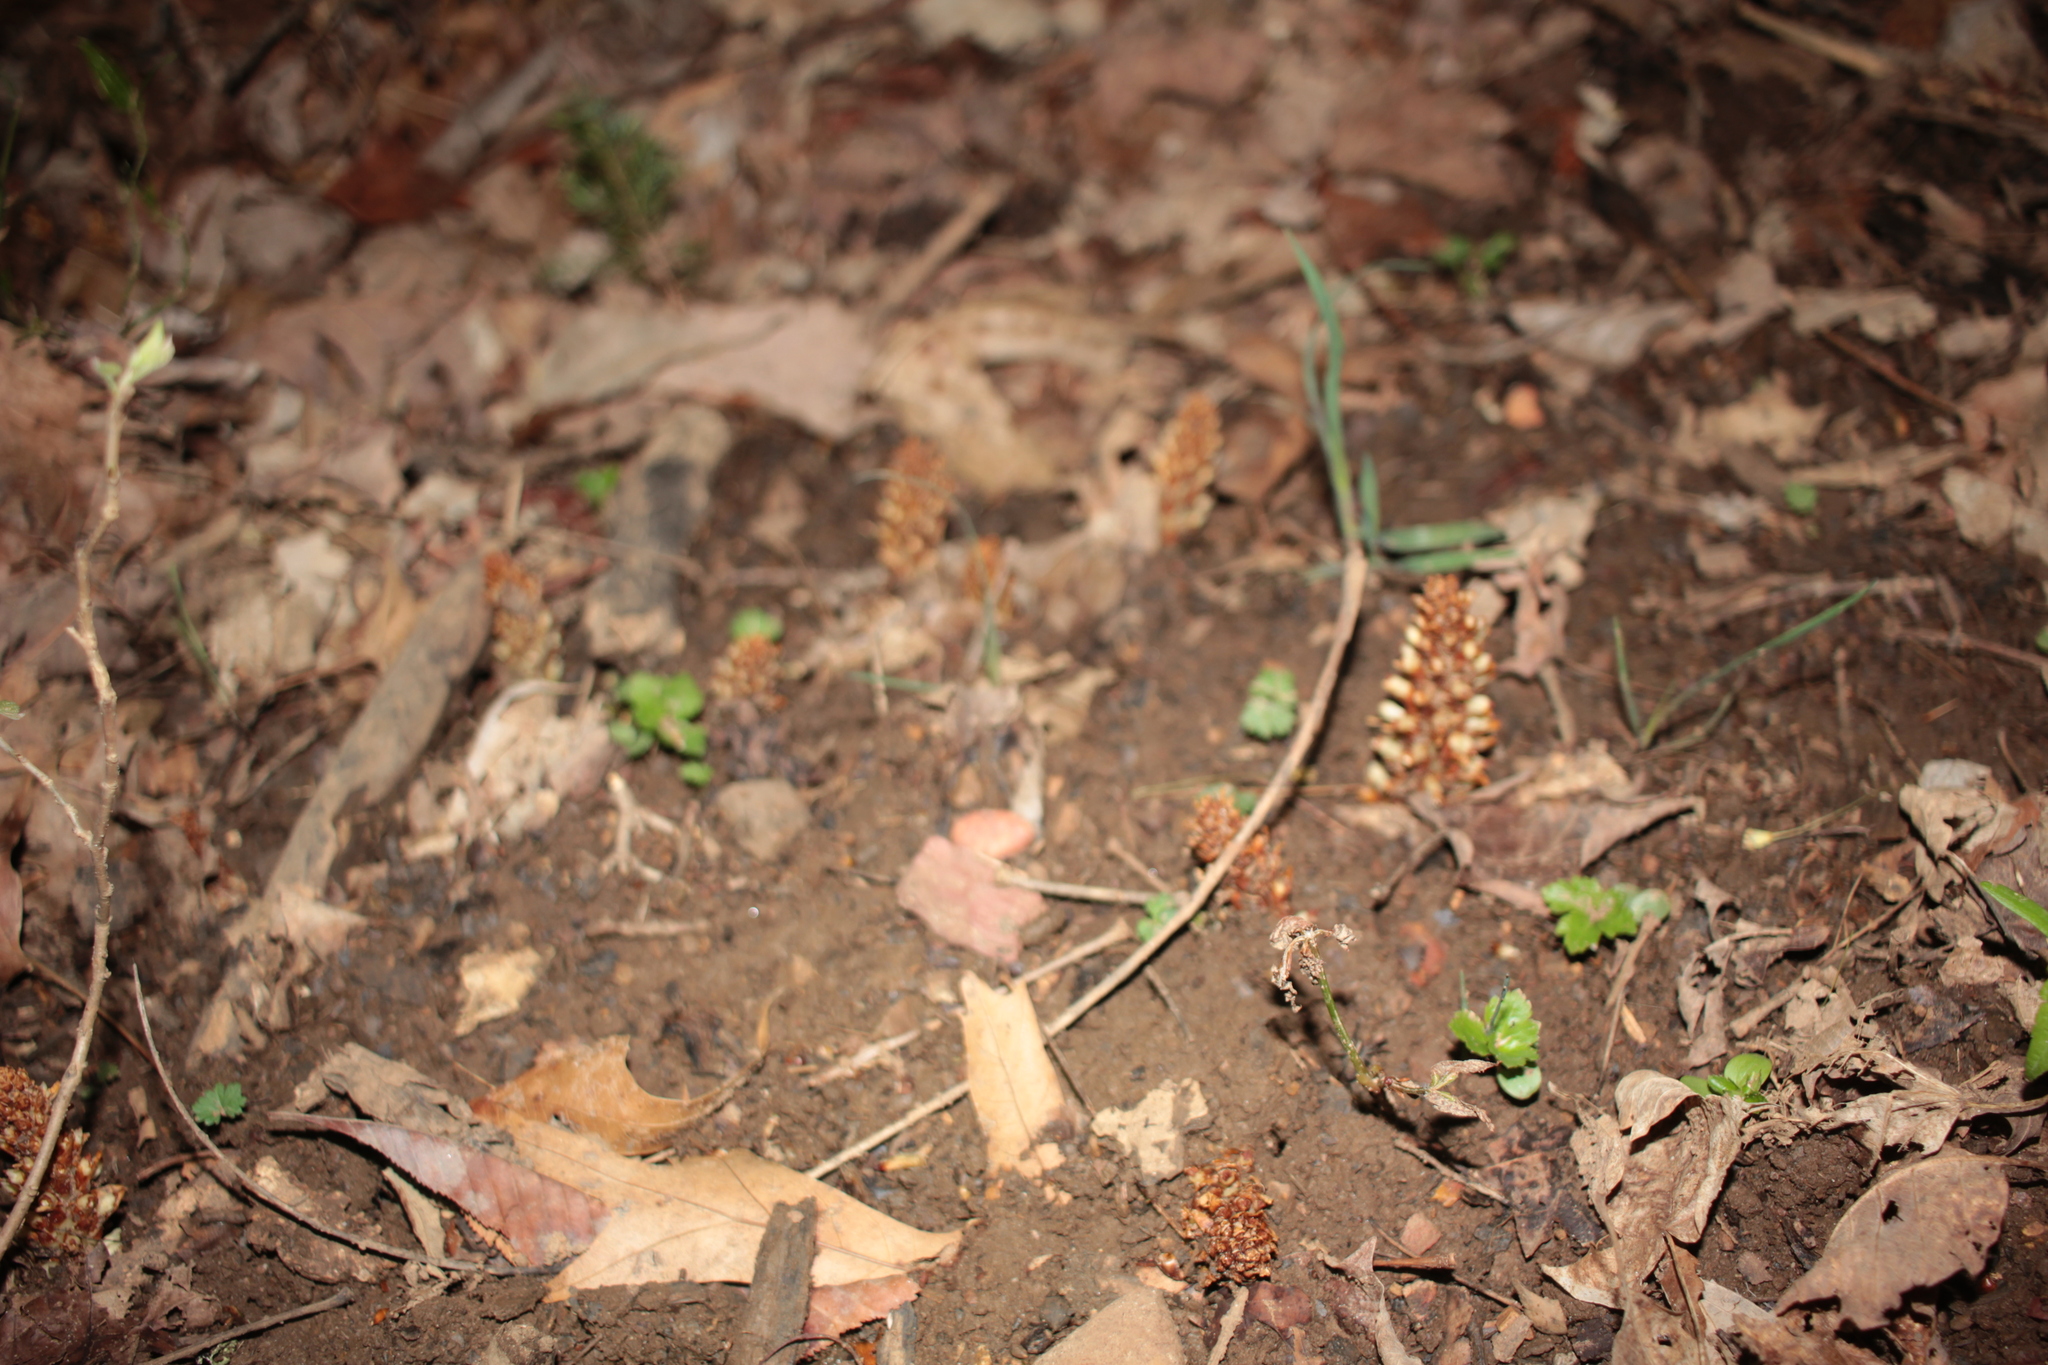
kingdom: Plantae
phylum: Tracheophyta
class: Magnoliopsida
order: Lamiales
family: Orobanchaceae
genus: Conopholis
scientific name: Conopholis americana
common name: American cancer-root
